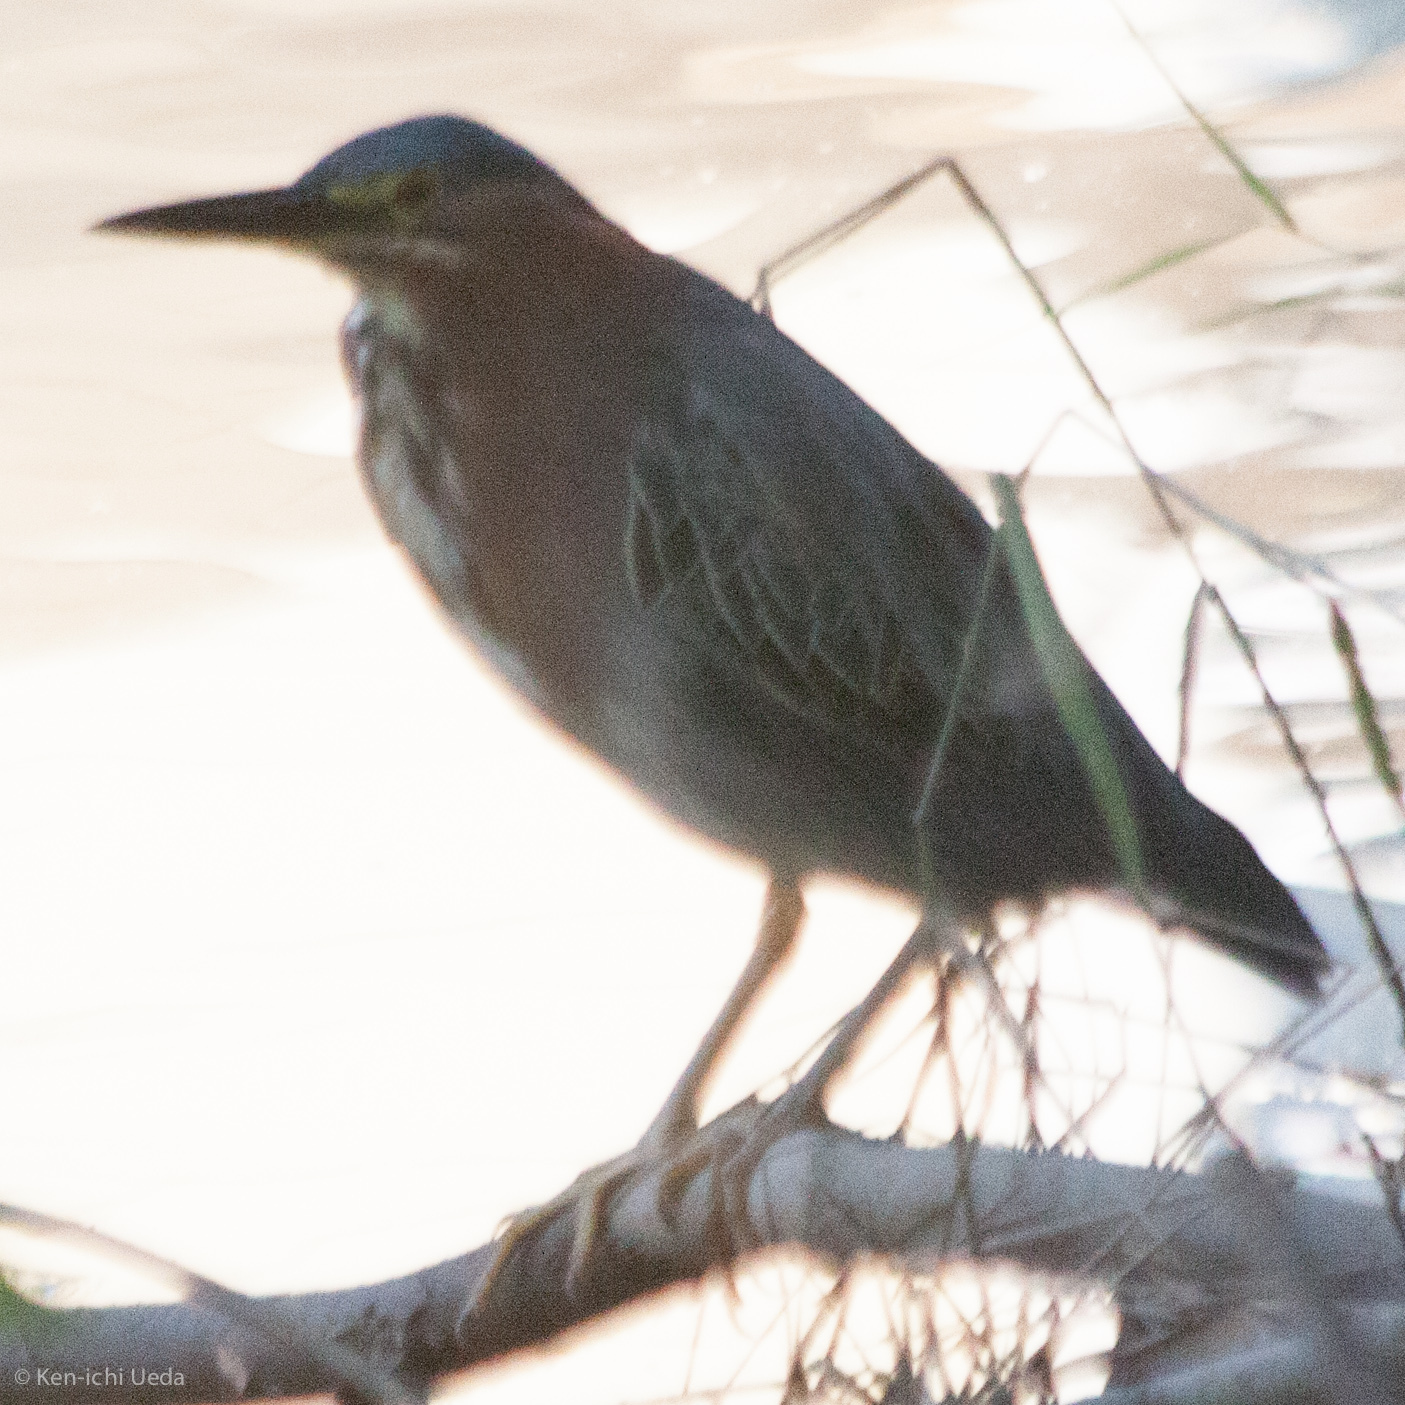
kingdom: Animalia
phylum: Chordata
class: Aves
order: Pelecaniformes
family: Ardeidae
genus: Butorides
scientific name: Butorides virescens
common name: Green heron
